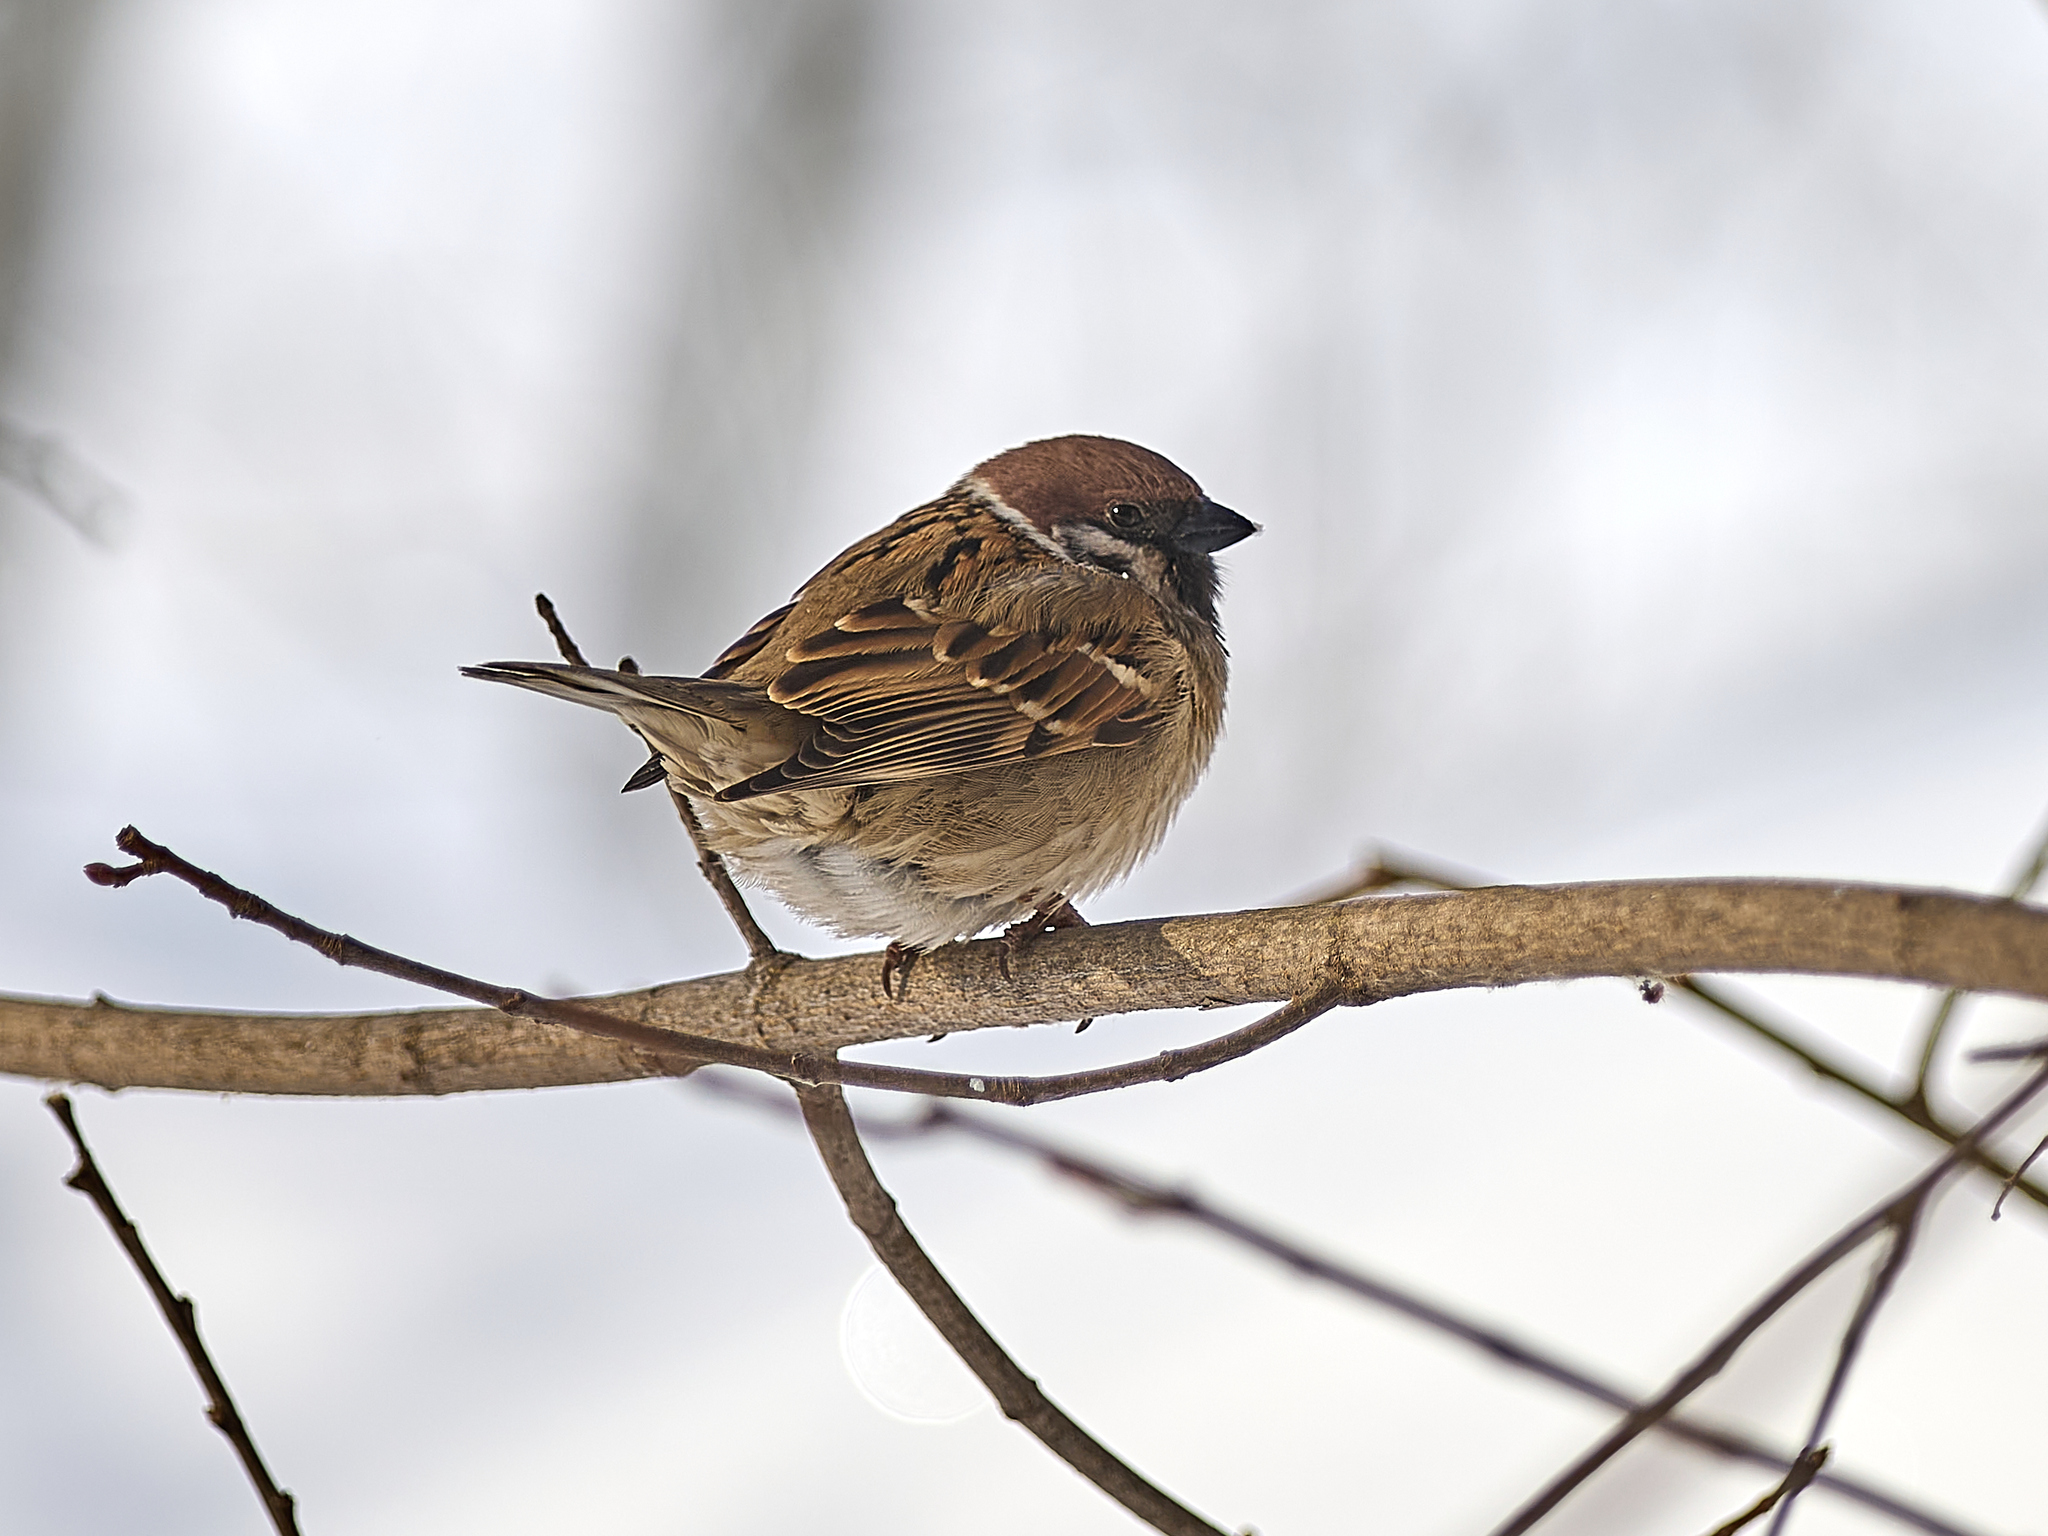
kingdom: Animalia
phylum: Chordata
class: Aves
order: Passeriformes
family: Passeridae
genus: Passer
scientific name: Passer montanus
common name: Eurasian tree sparrow
